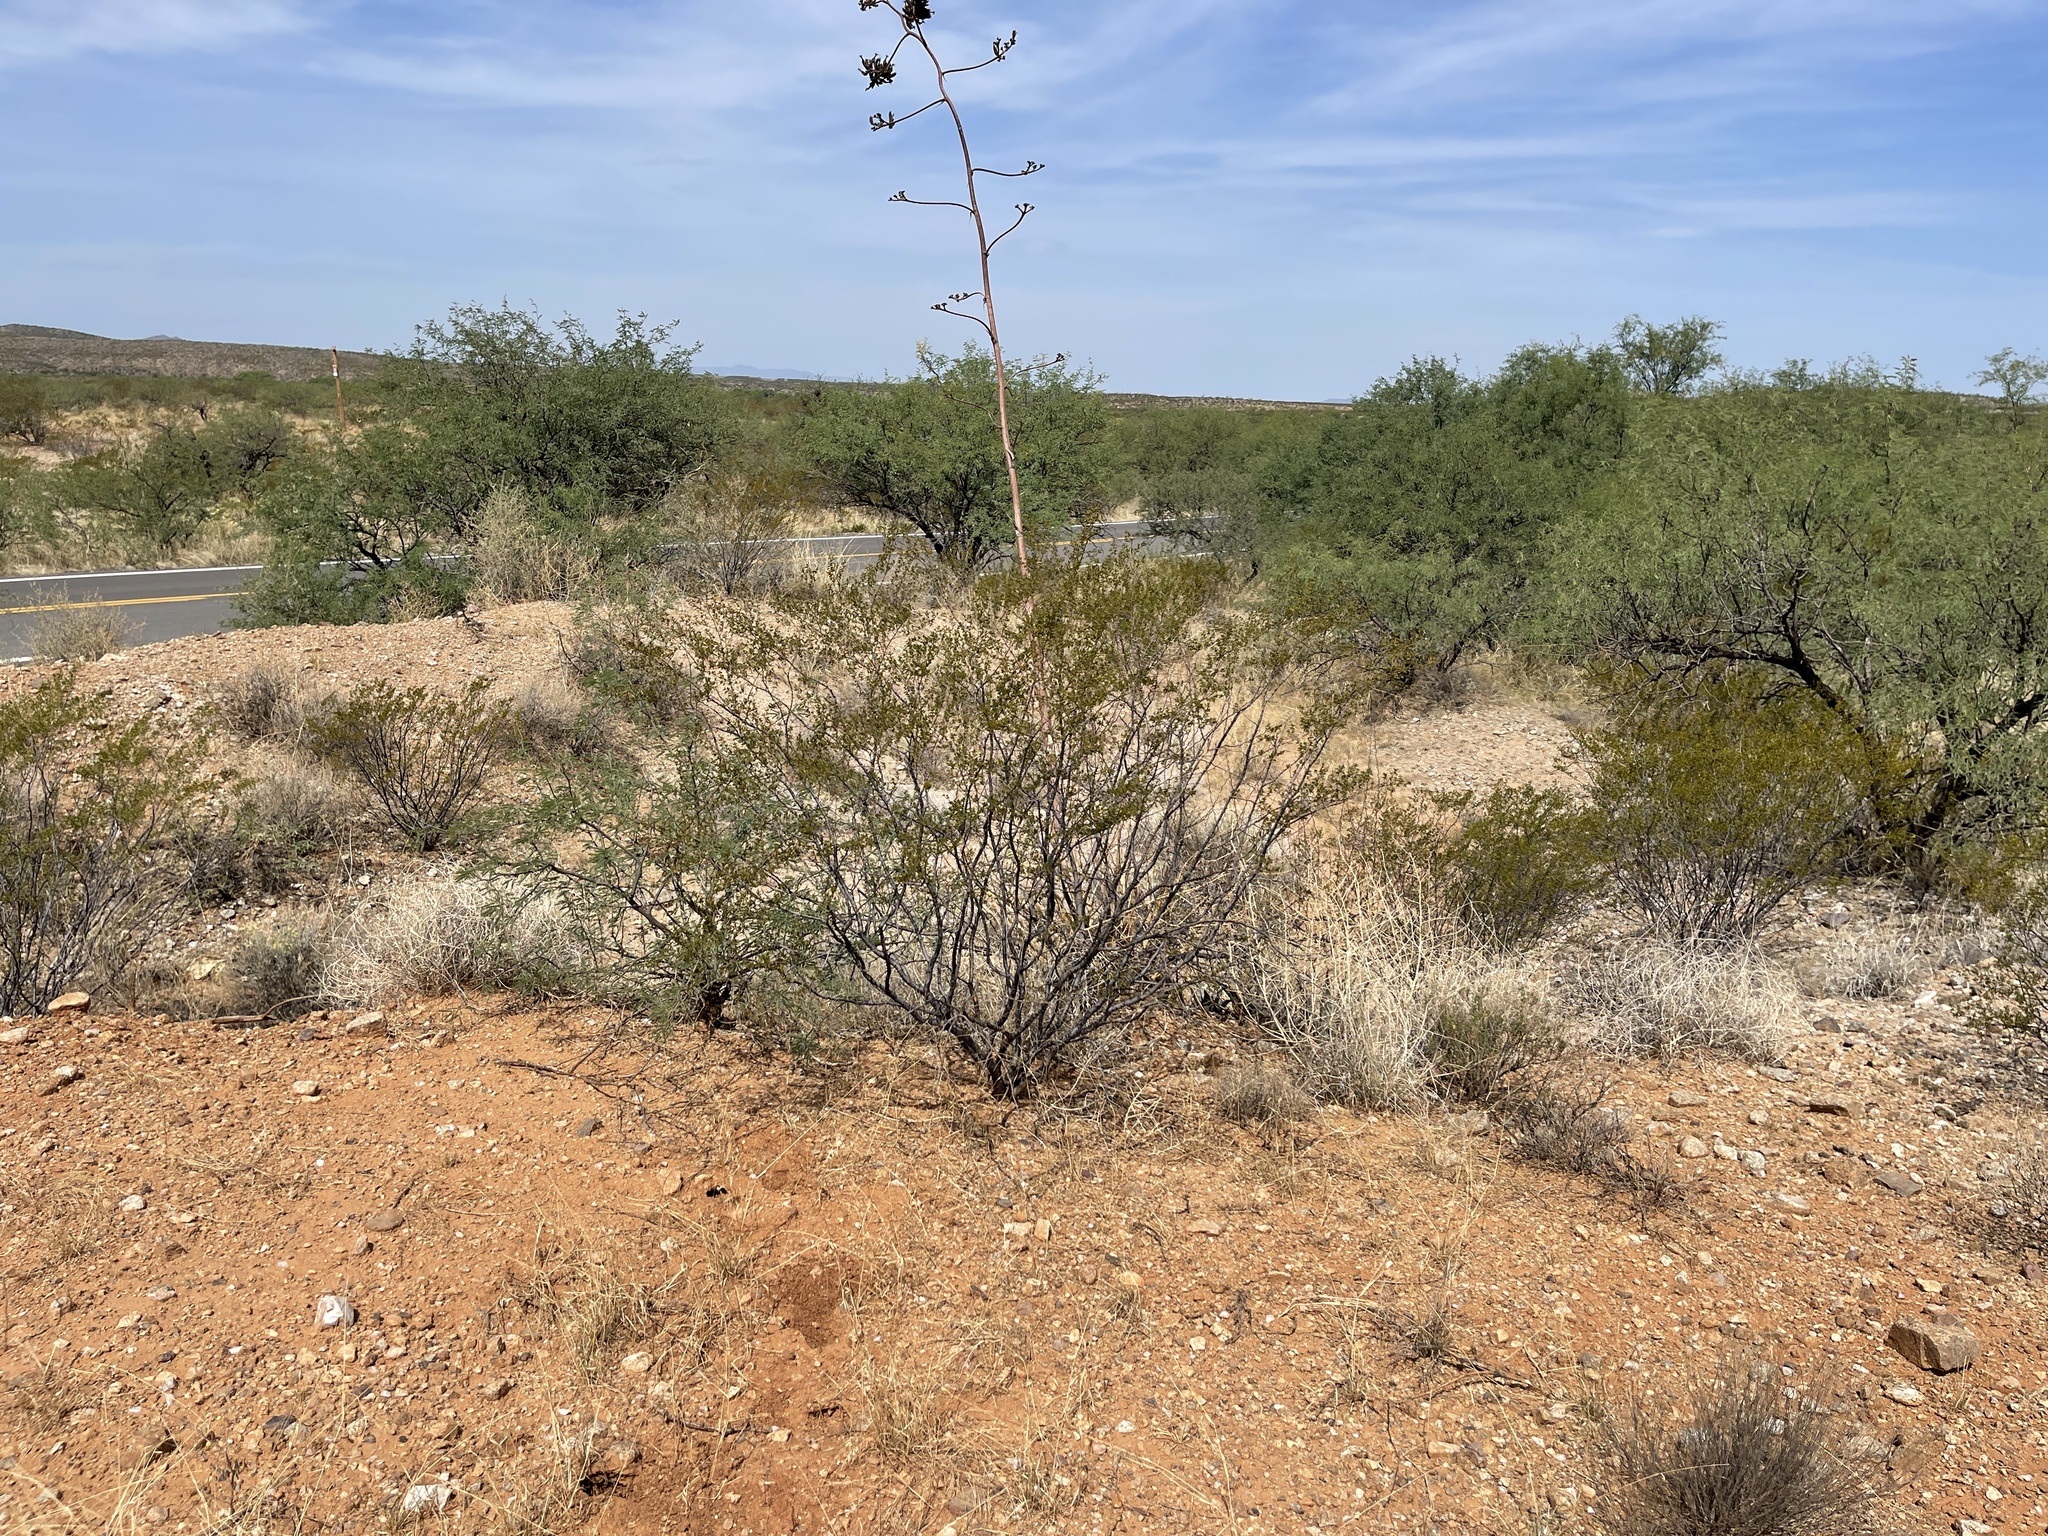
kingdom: Plantae
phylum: Tracheophyta
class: Magnoliopsida
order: Zygophyllales
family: Zygophyllaceae
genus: Larrea
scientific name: Larrea tridentata
